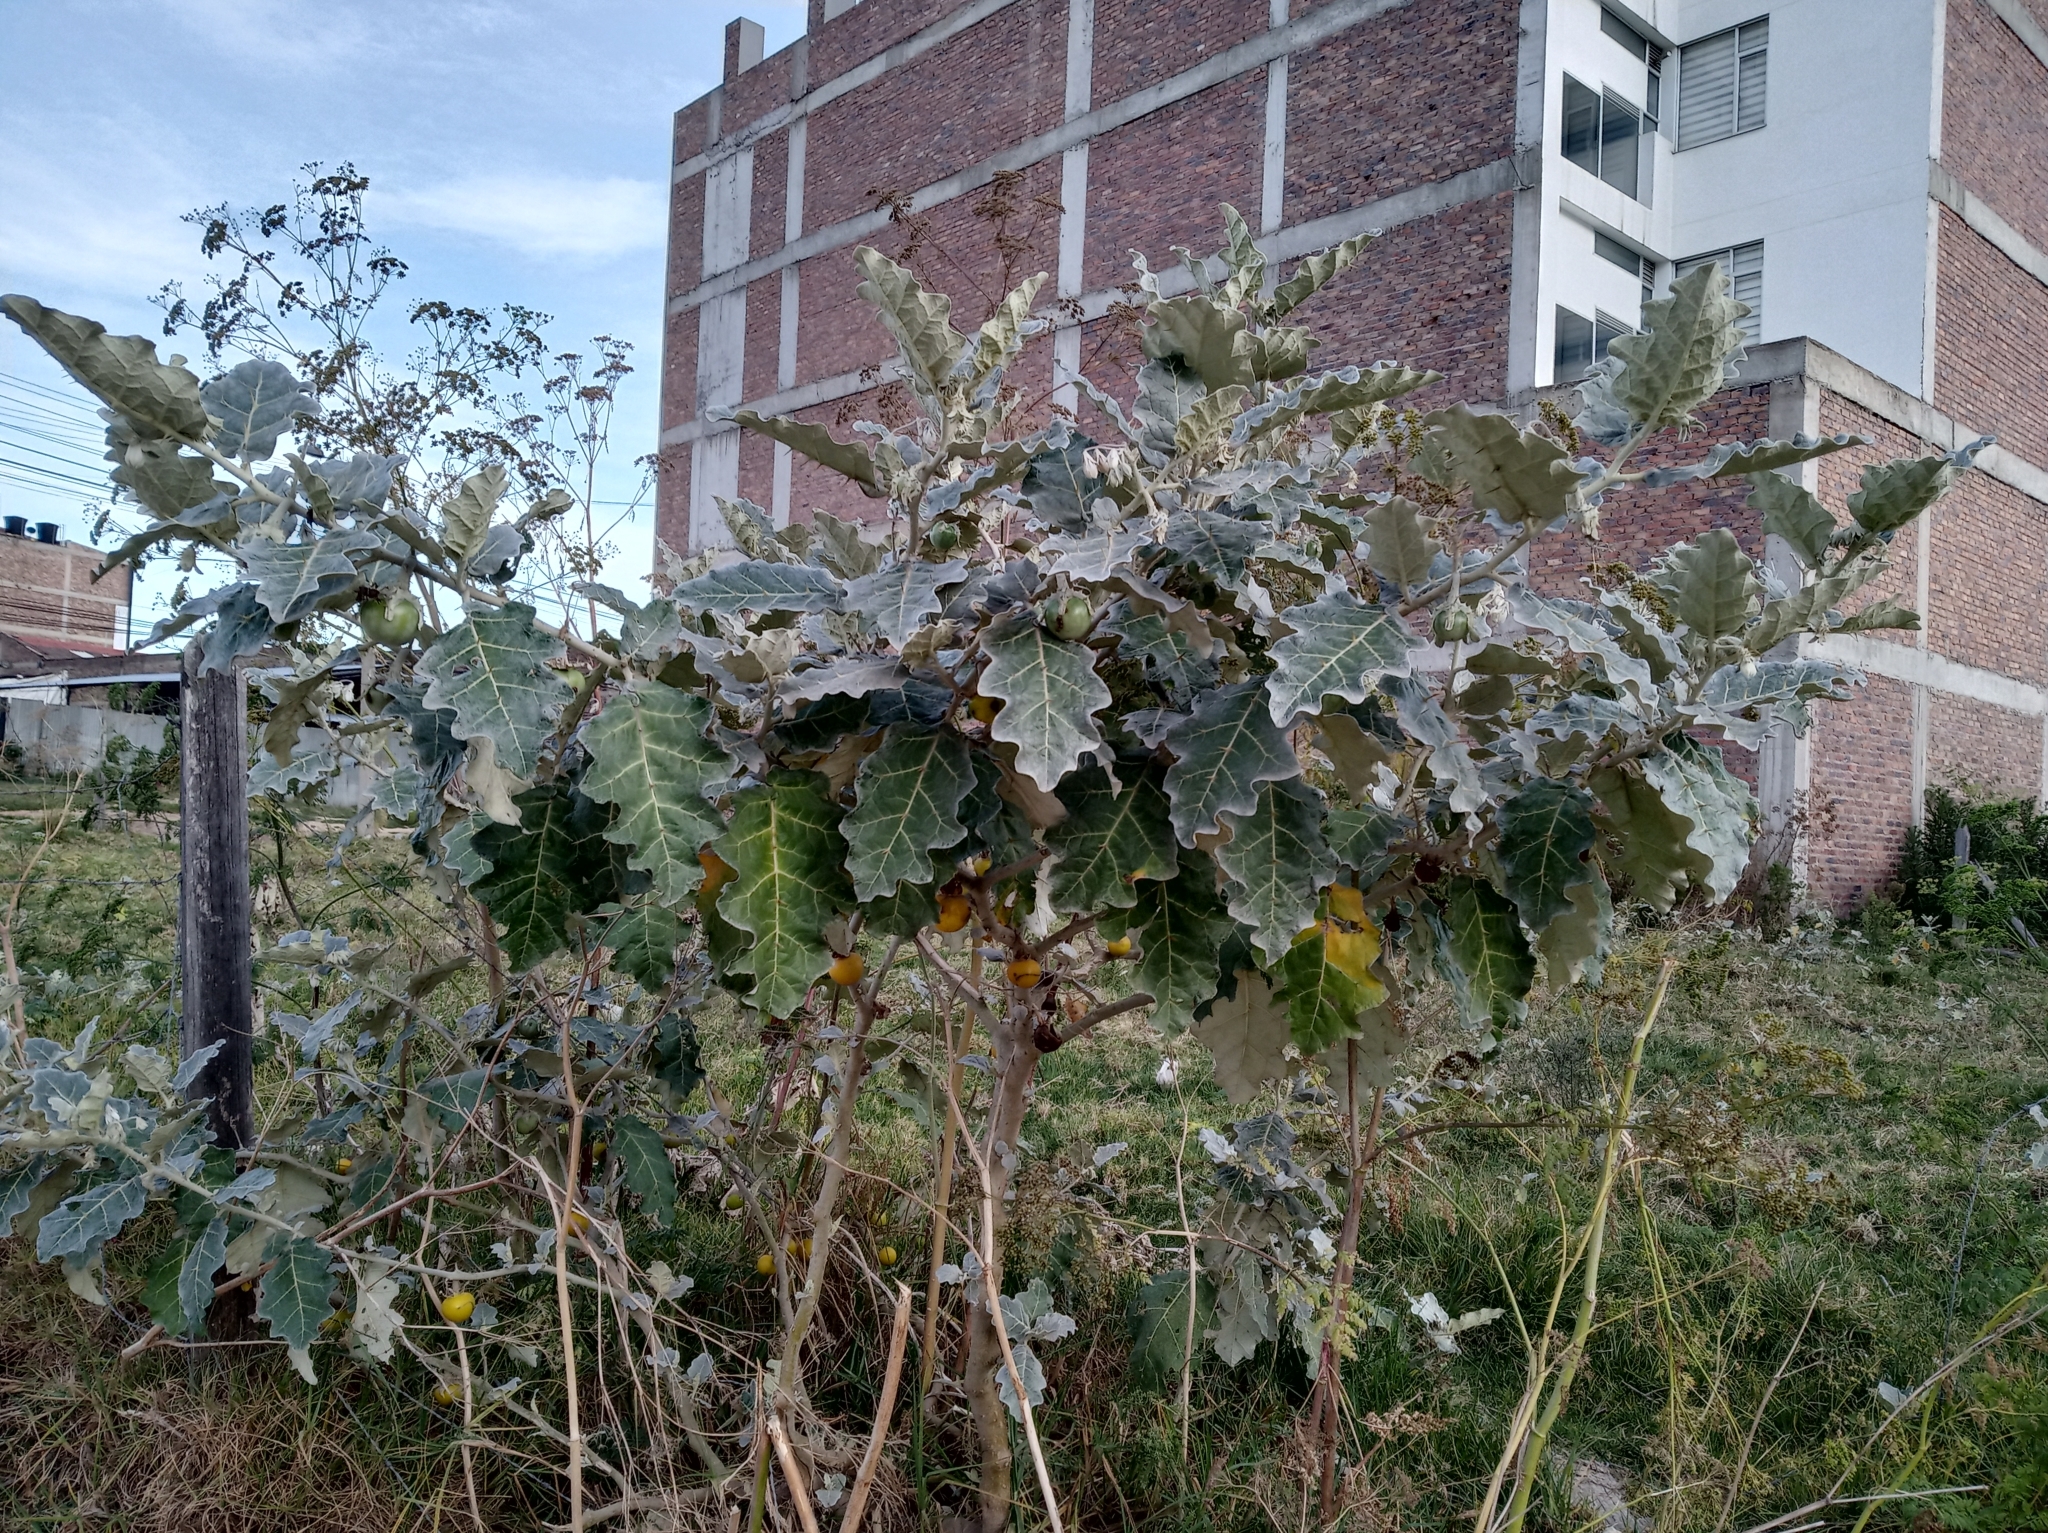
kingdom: Plantae
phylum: Tracheophyta
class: Magnoliopsida
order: Solanales
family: Solanaceae
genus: Solanum
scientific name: Solanum marginatum
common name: Purple african nightshade
